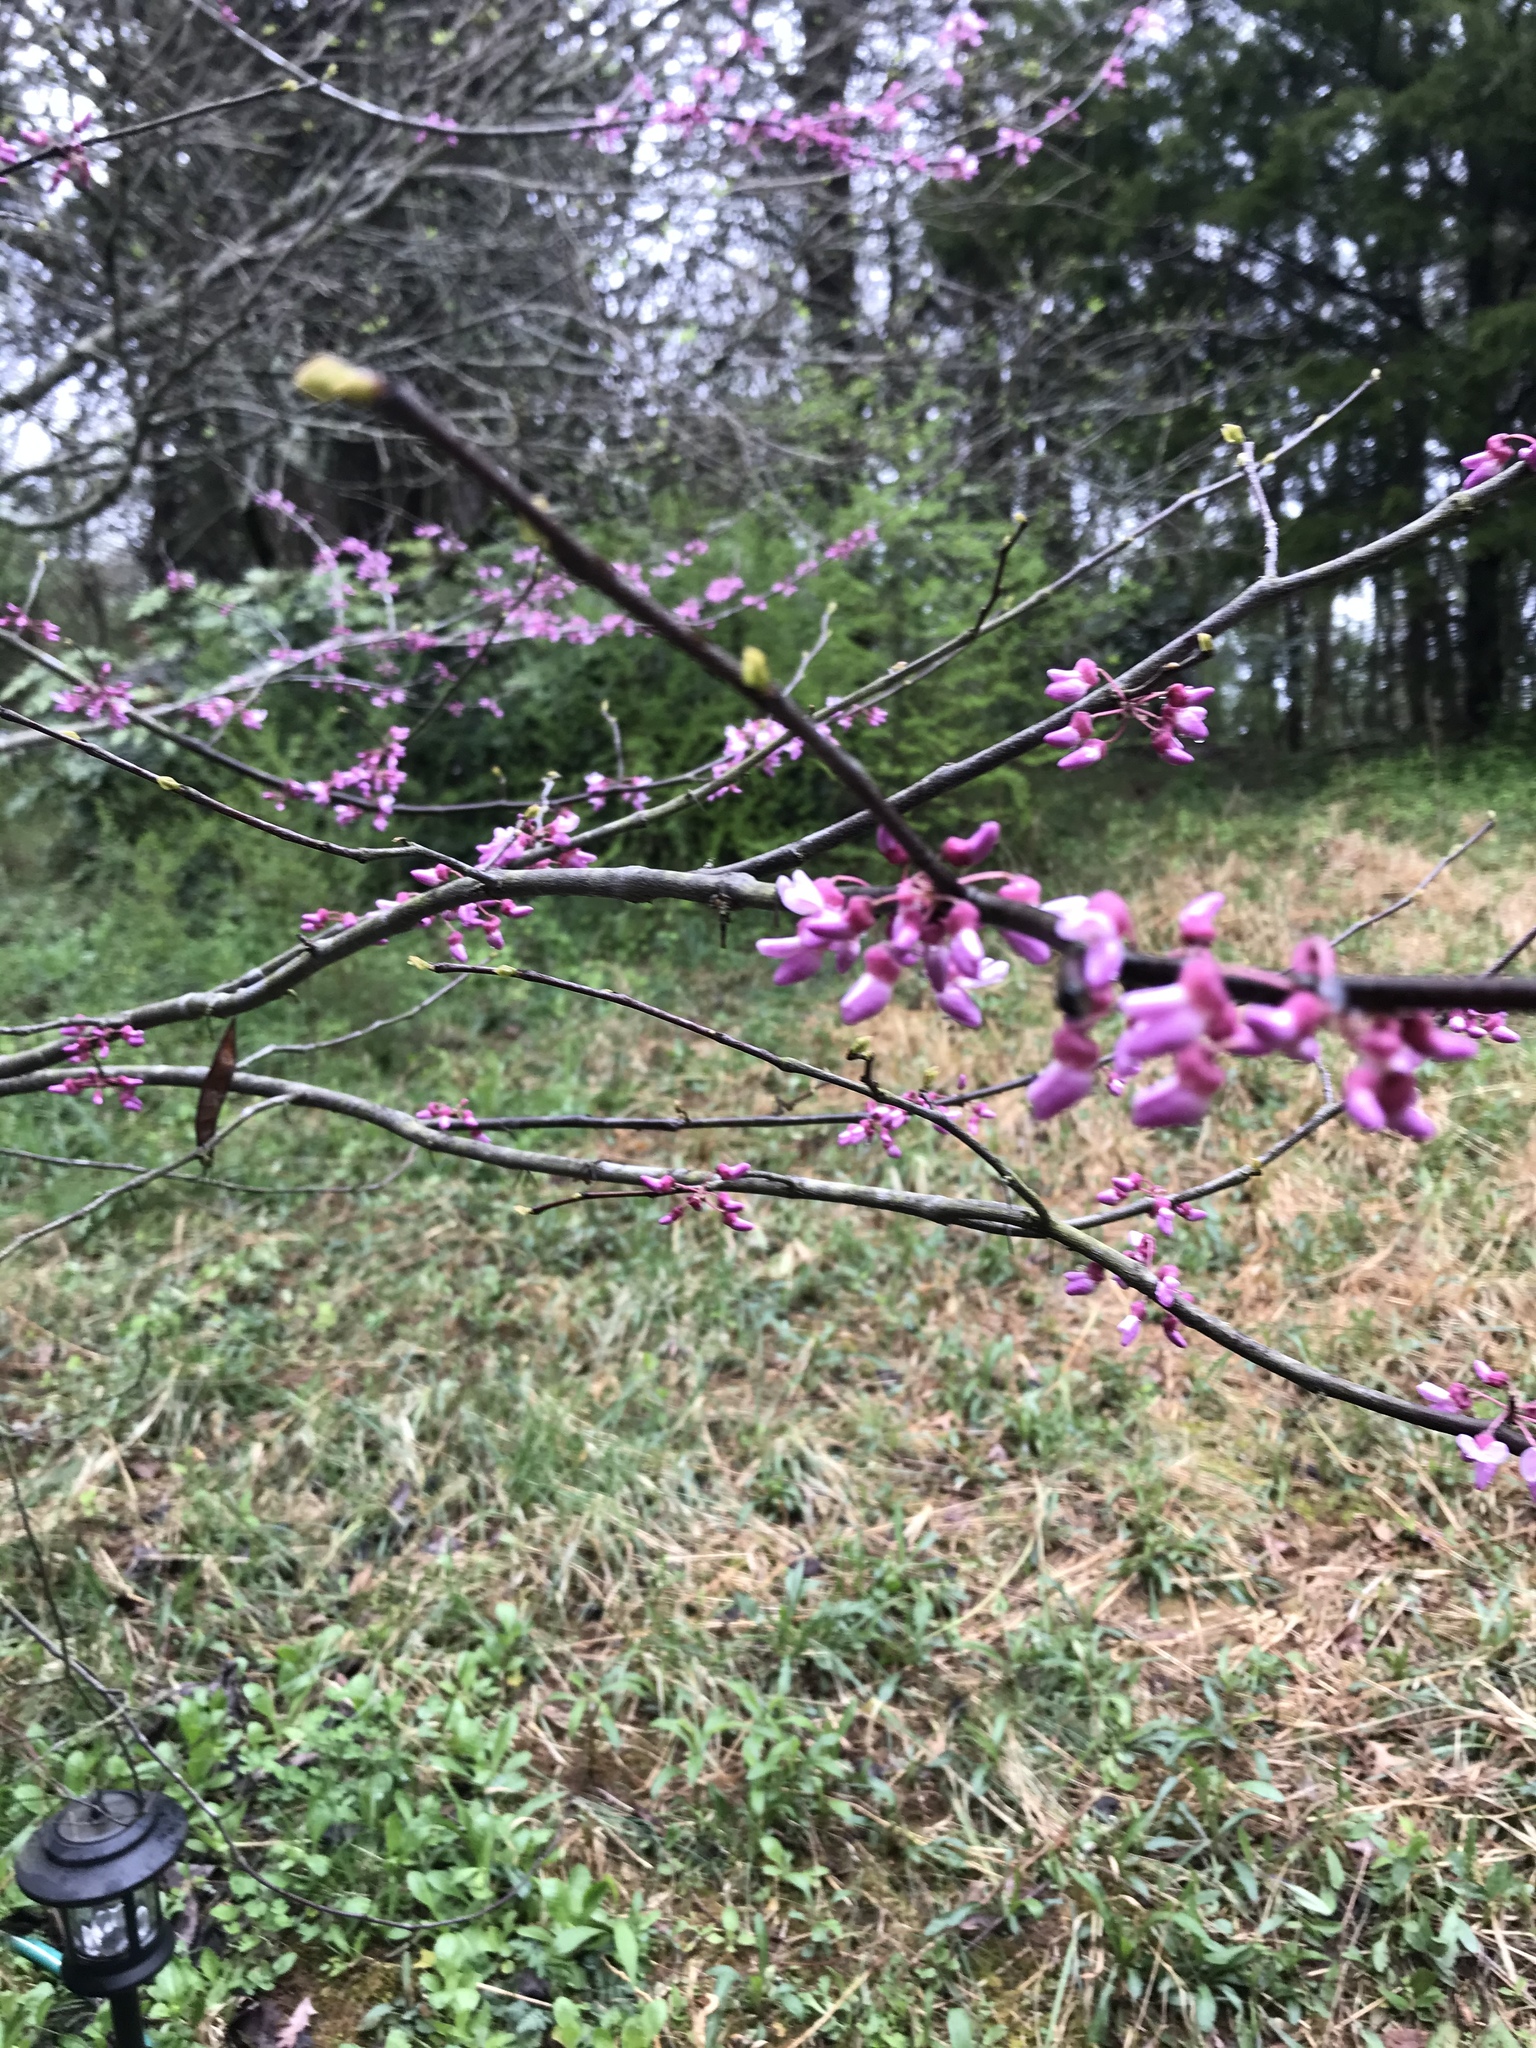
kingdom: Plantae
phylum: Tracheophyta
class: Magnoliopsida
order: Fabales
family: Fabaceae
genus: Cercis
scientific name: Cercis canadensis
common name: Eastern redbud
